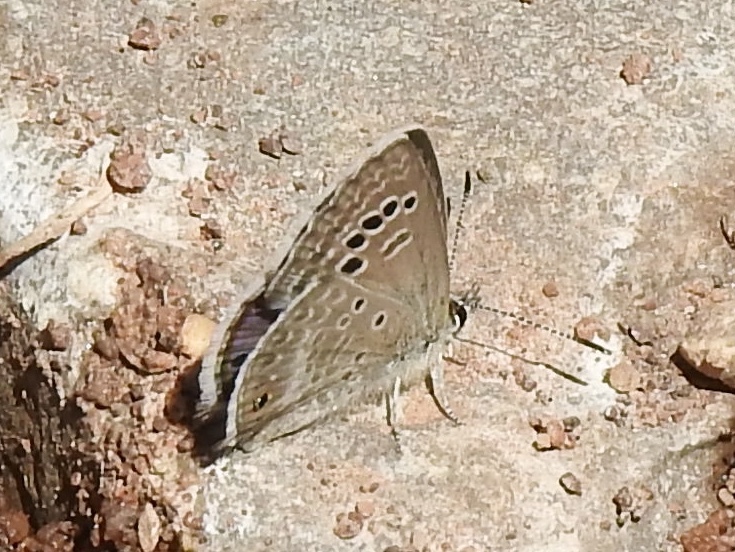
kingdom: Animalia
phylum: Arthropoda
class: Insecta
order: Lepidoptera
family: Lycaenidae
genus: Echinargus
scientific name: Echinargus isola
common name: Reakirt's blue
